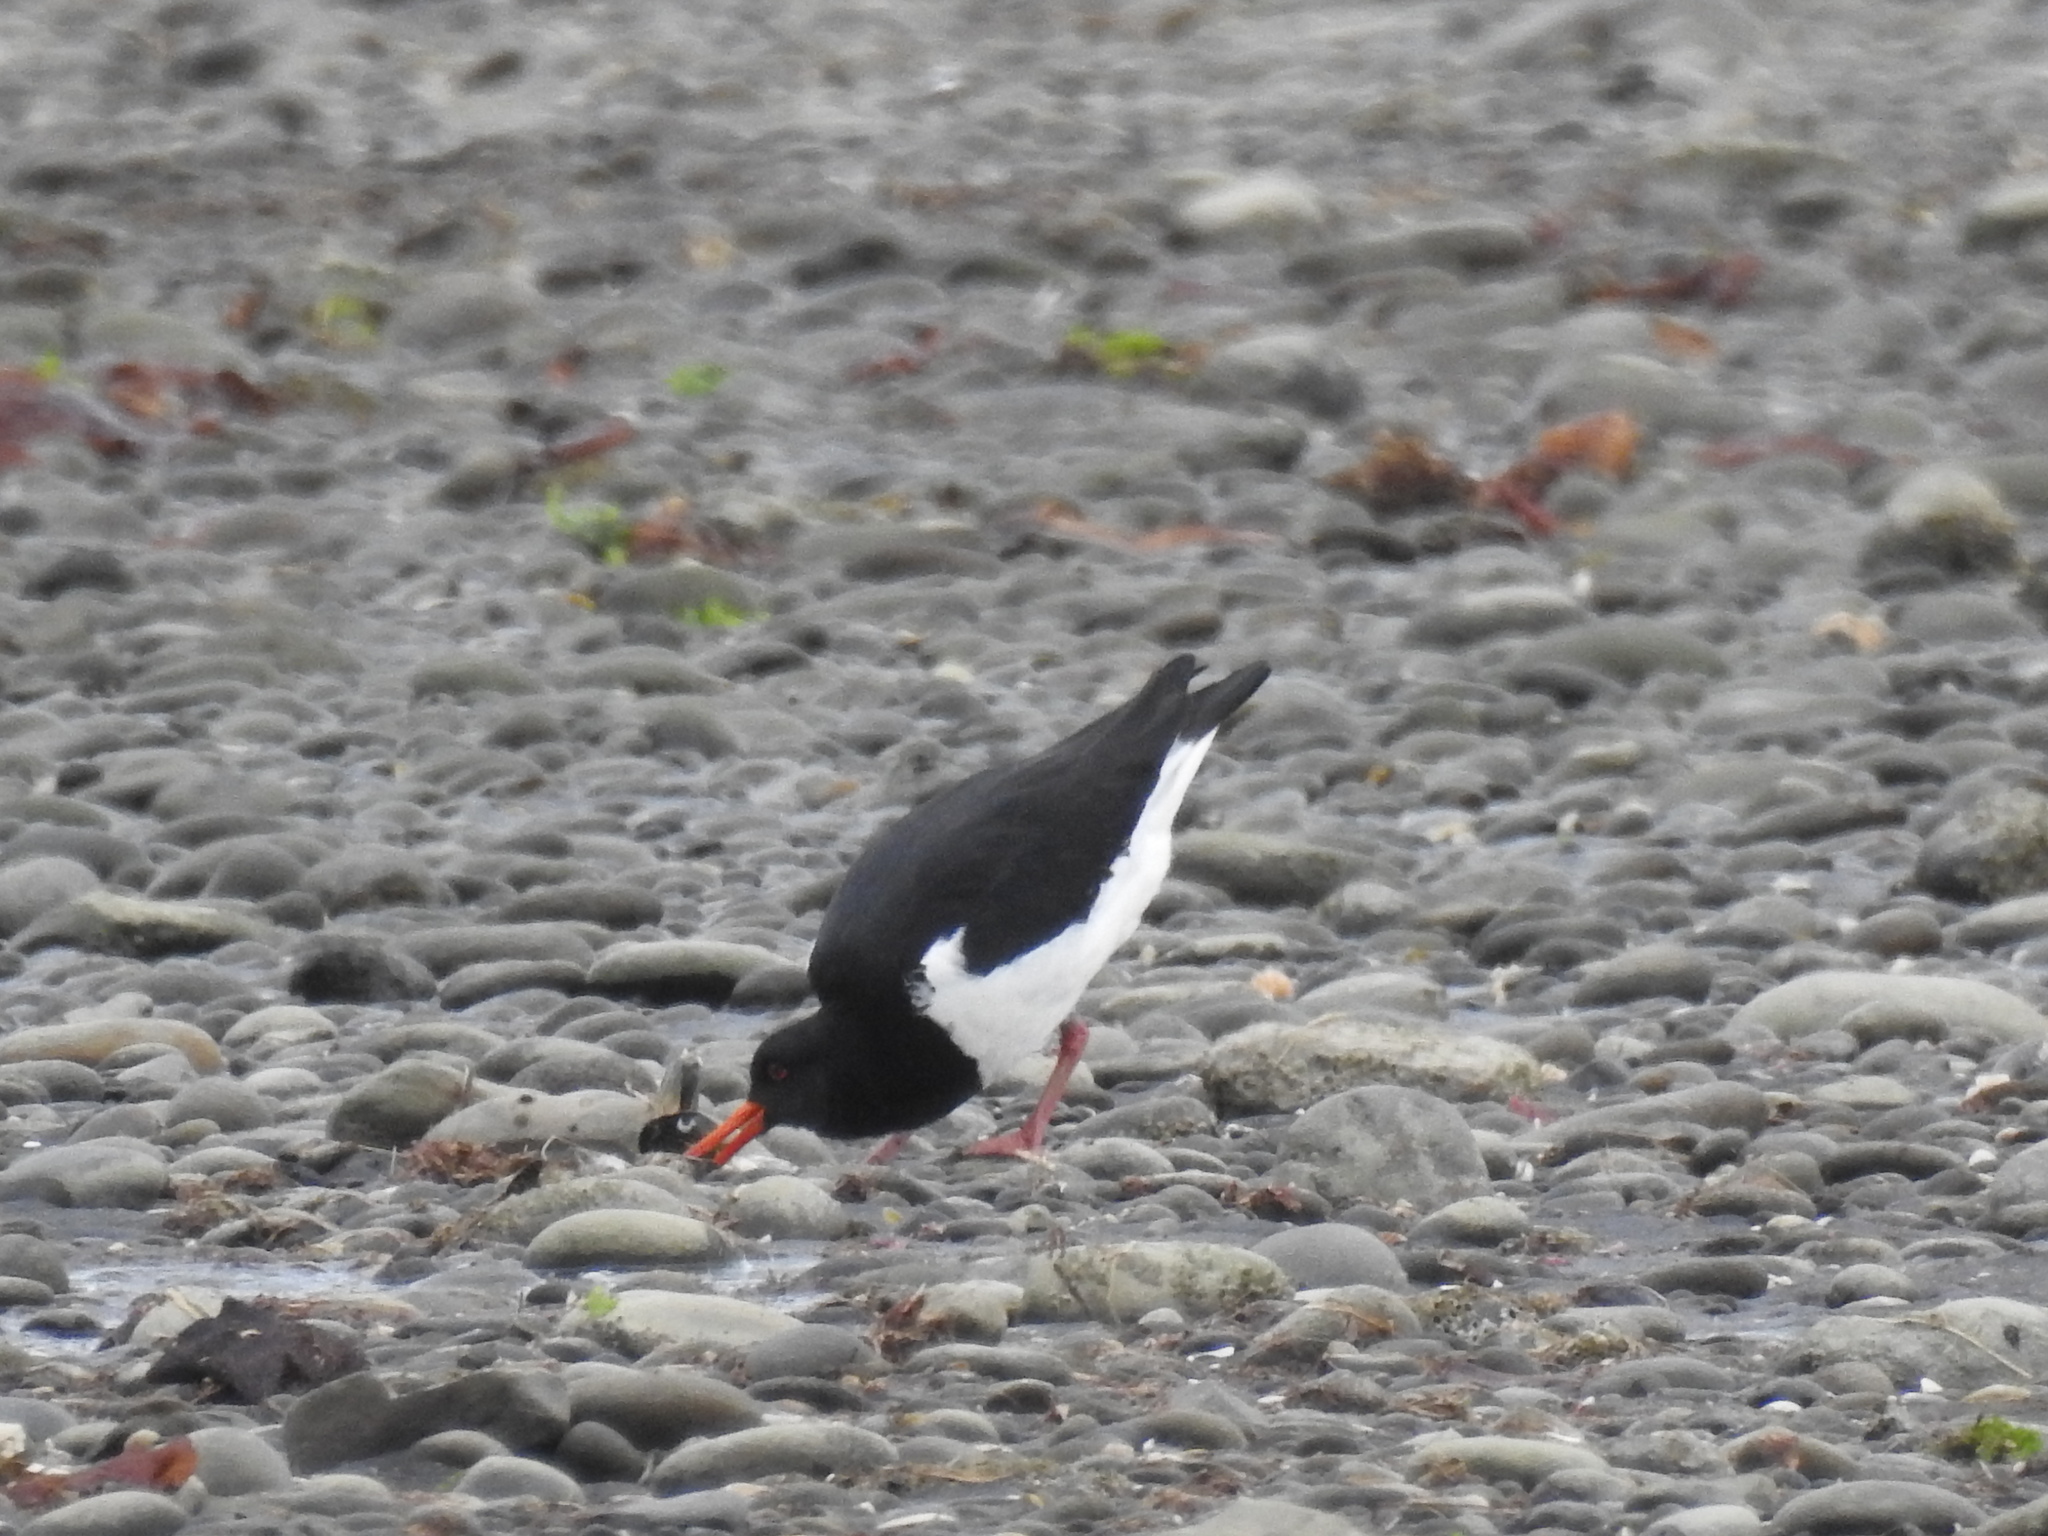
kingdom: Animalia
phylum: Chordata
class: Aves
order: Charadriiformes
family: Haematopodidae
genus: Haematopus
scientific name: Haematopus finschi
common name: South island oystercatcher
